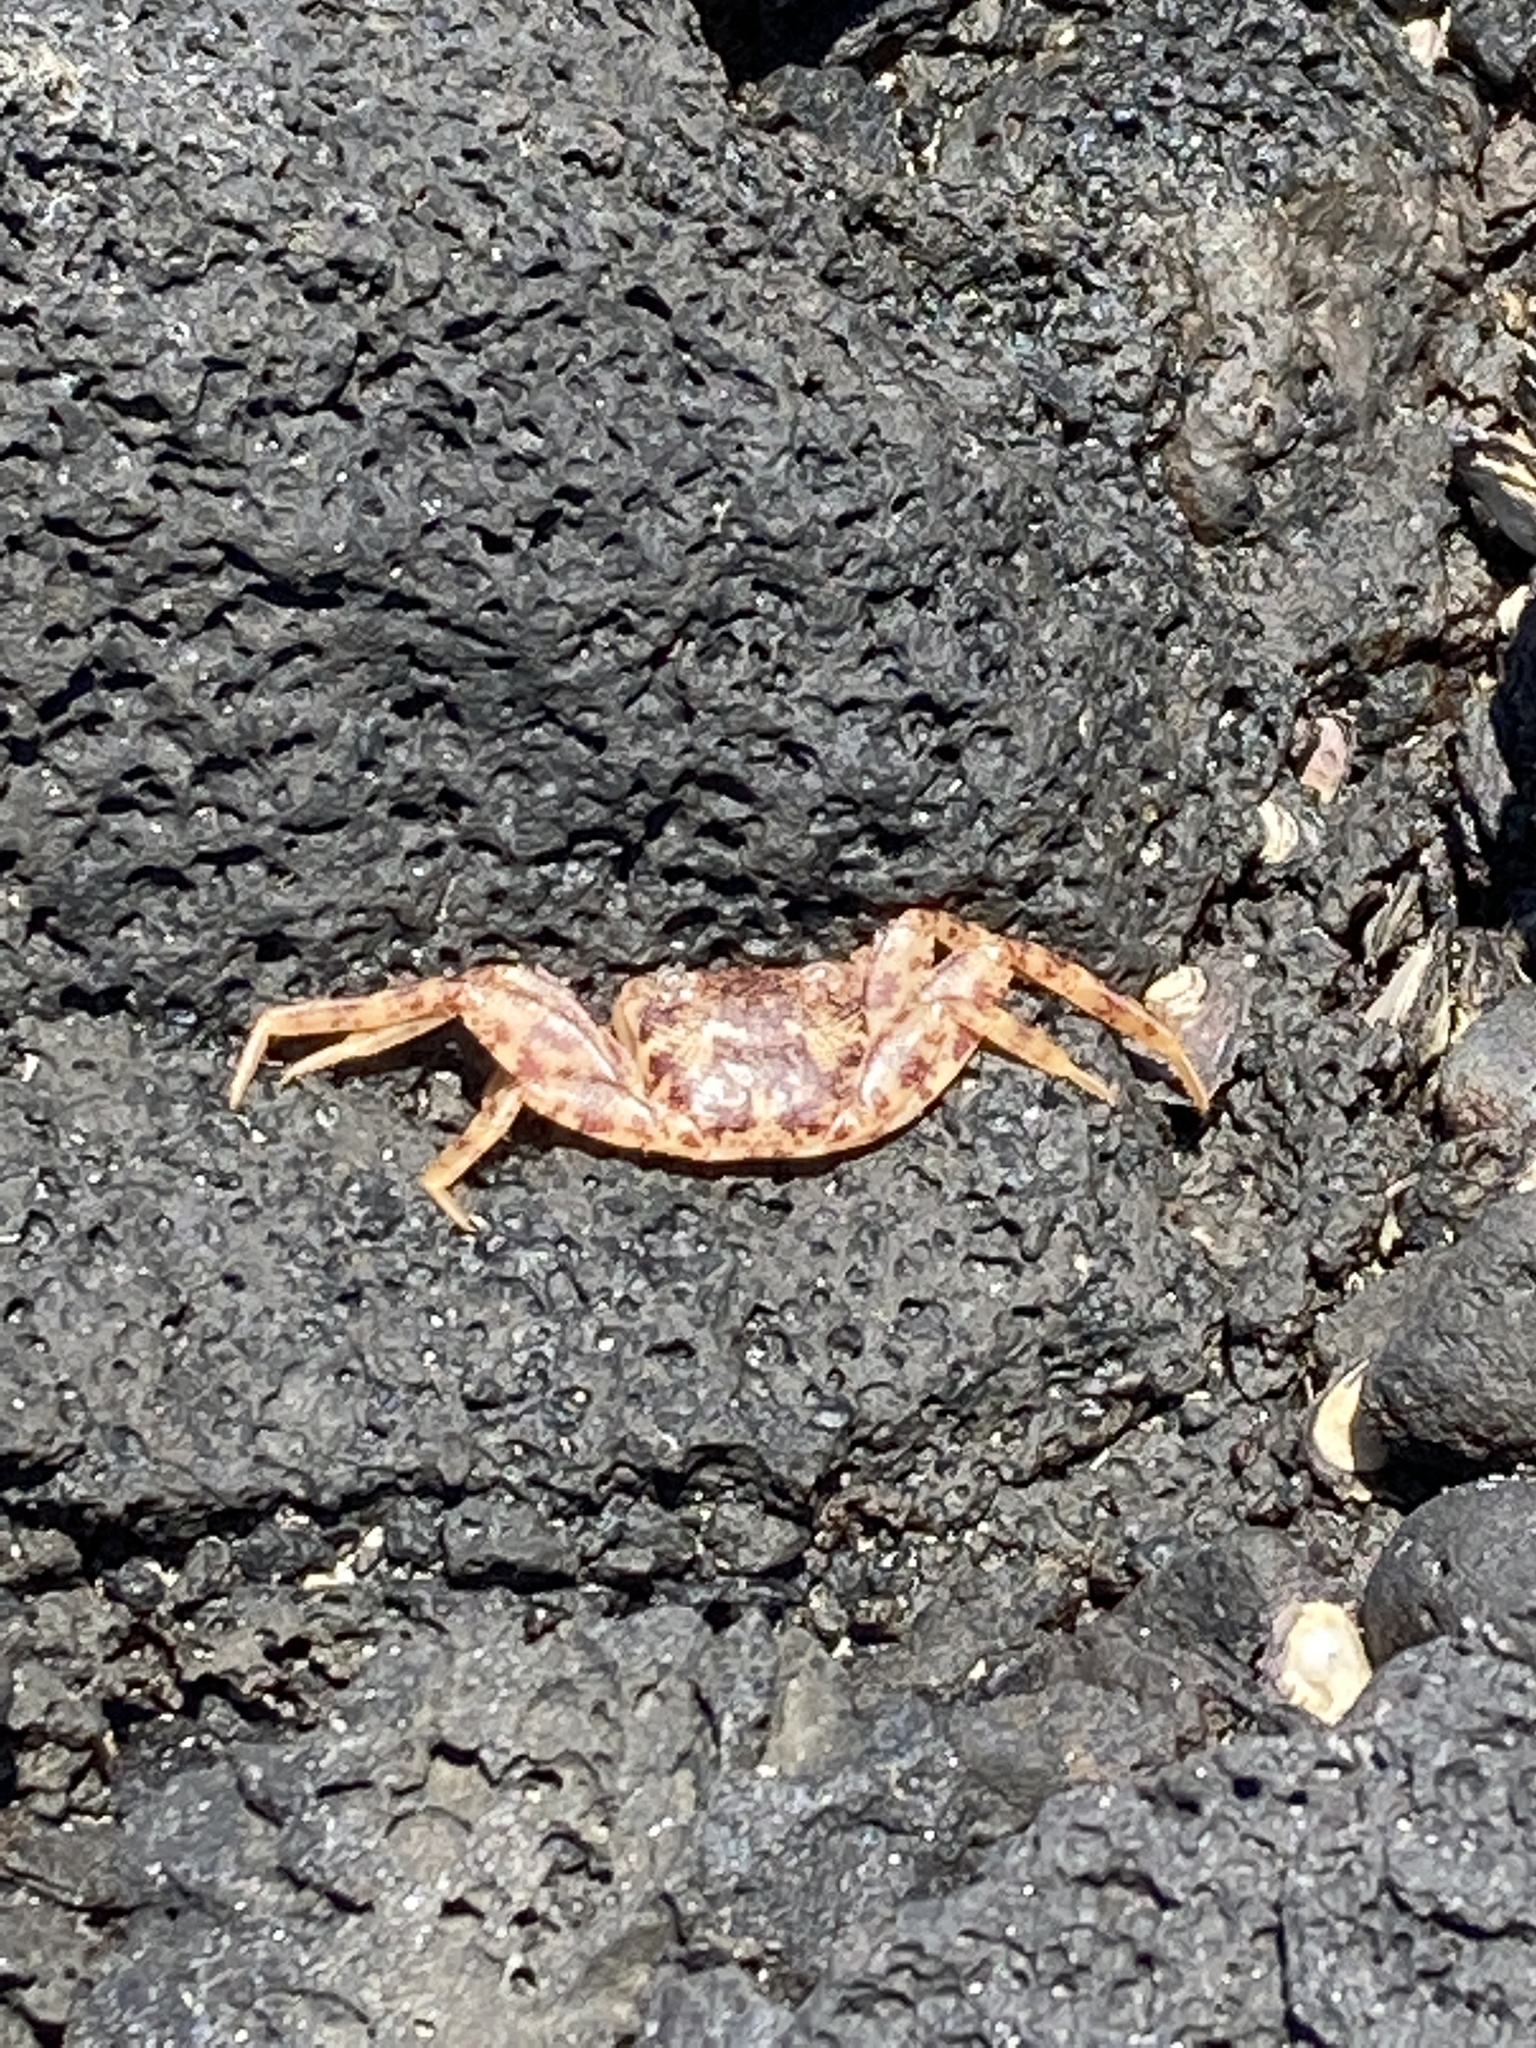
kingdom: Animalia
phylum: Arthropoda
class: Malacostraca
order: Decapoda
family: Grapsidae
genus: Grapsus
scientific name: Grapsus tenuicrustatus
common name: Natal lightfoot crab
